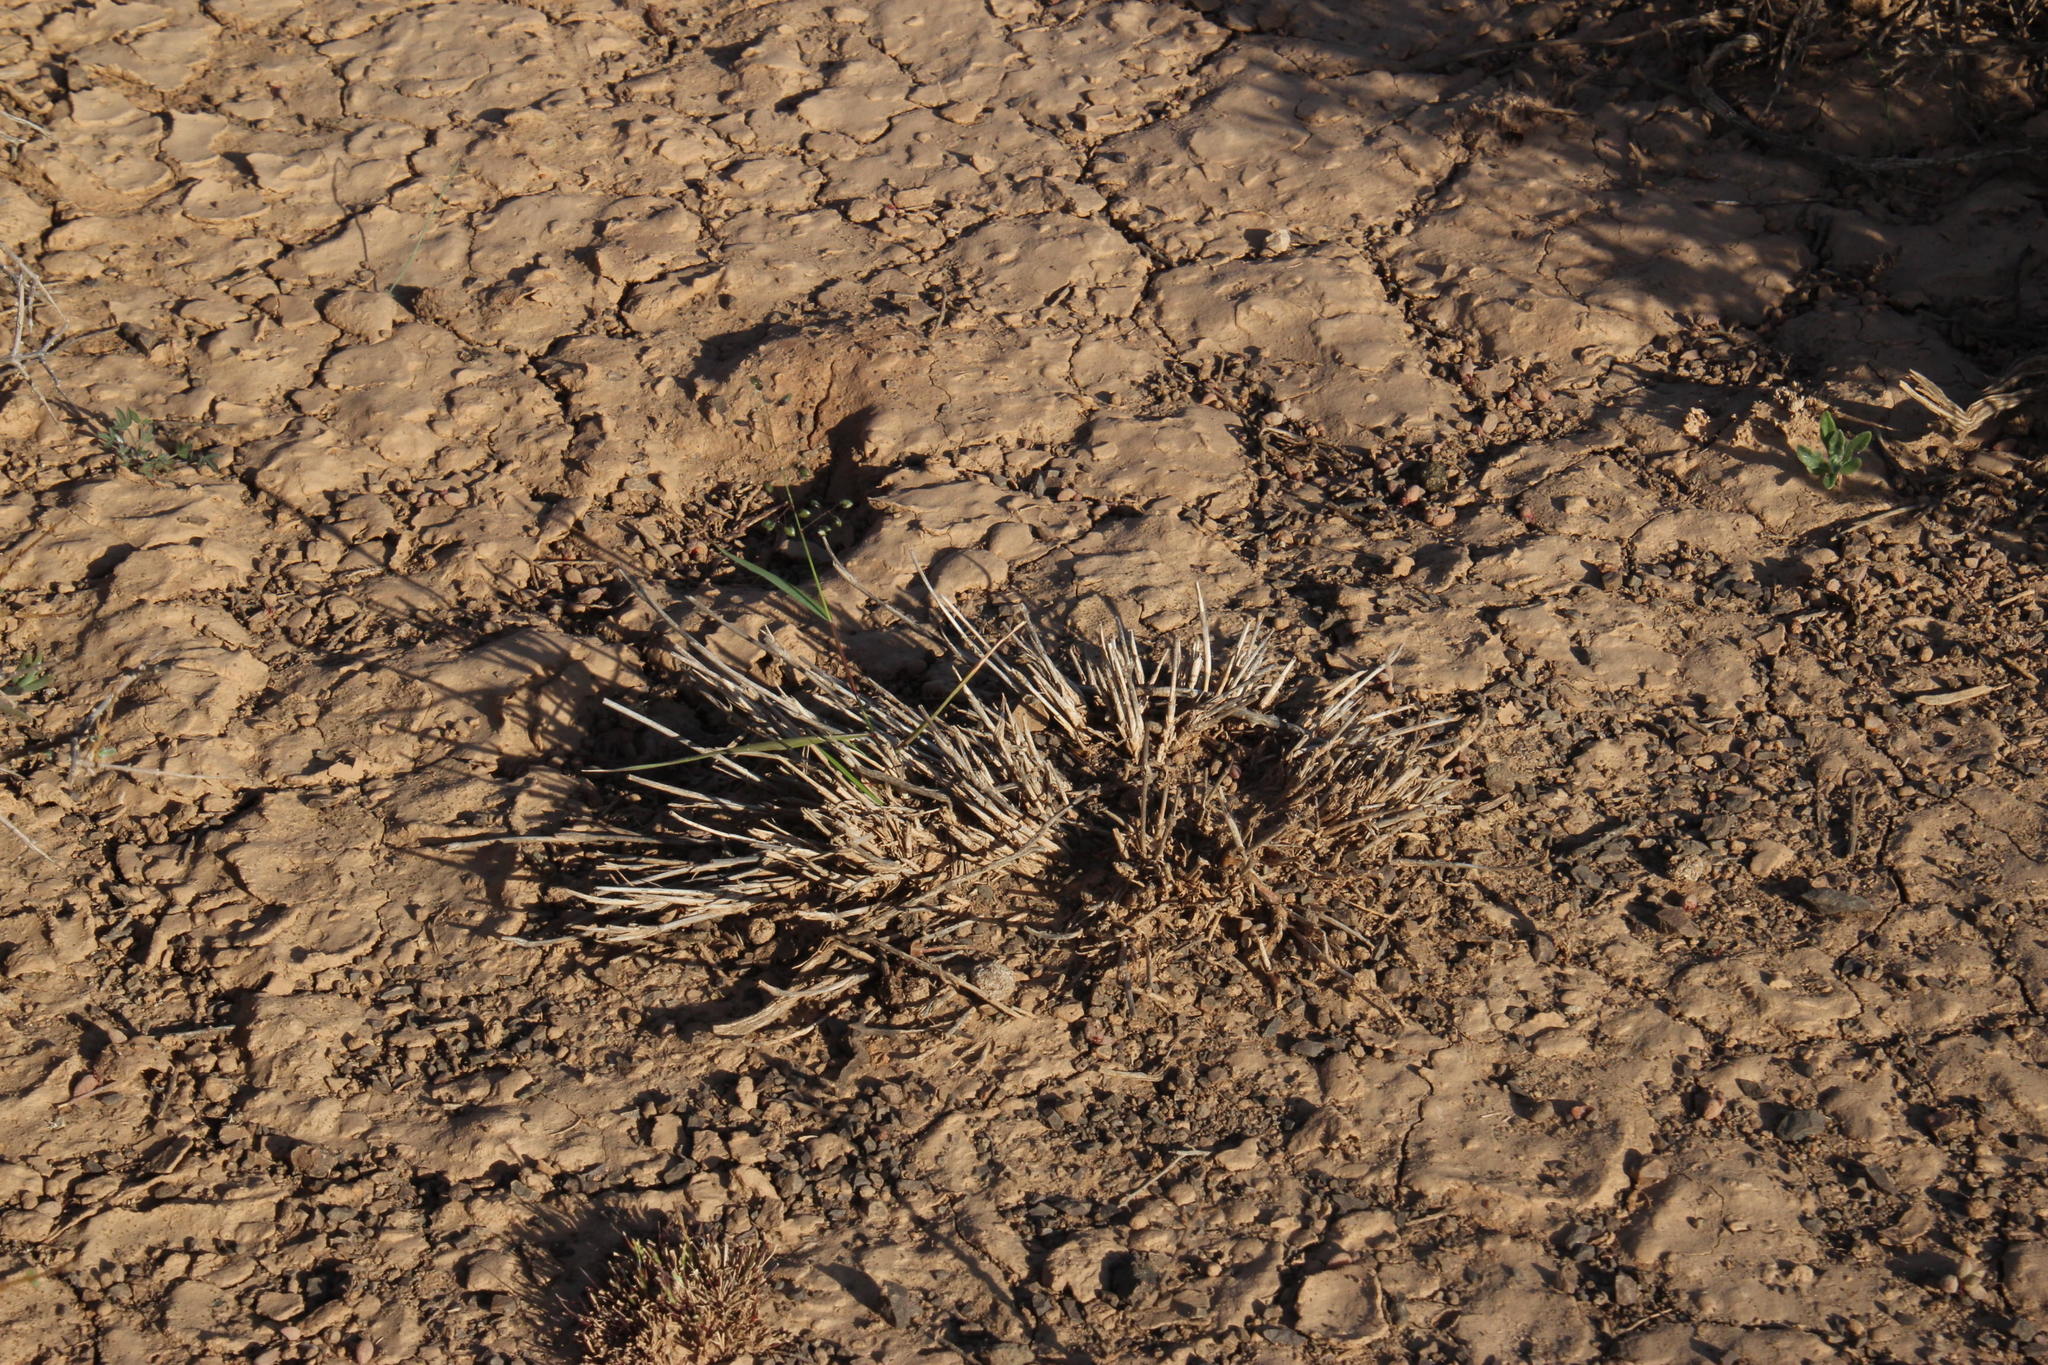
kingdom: Plantae
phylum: Tracheophyta
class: Liliopsida
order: Poales
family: Poaceae
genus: Eragrostis
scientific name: Eragrostis obtusa
